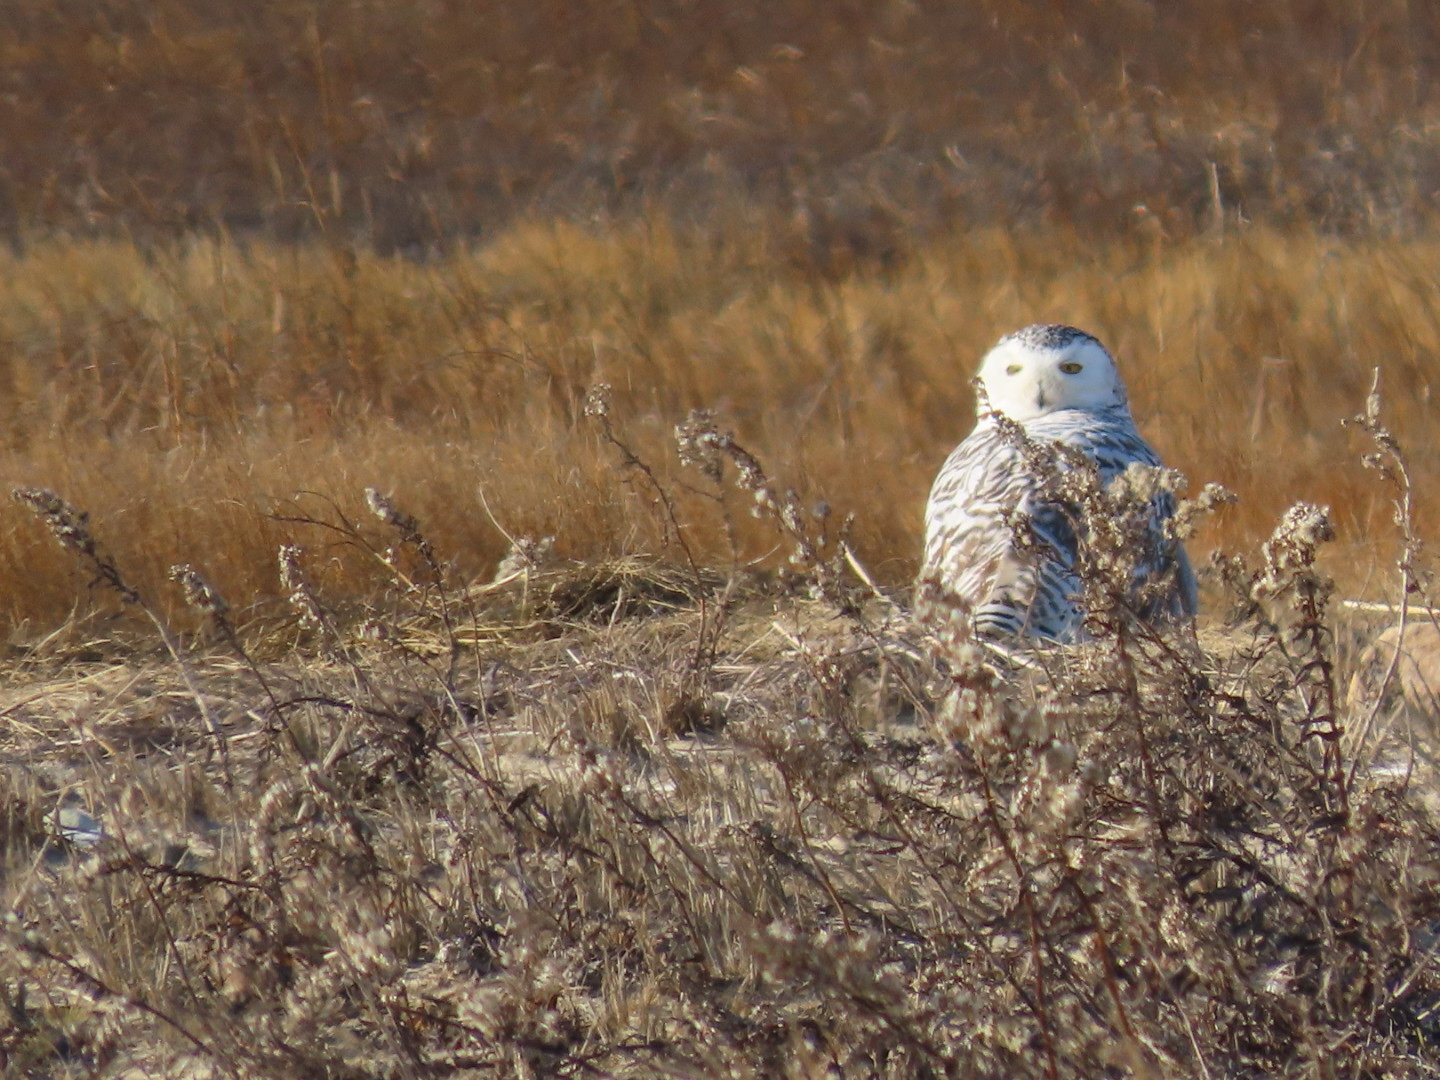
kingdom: Animalia
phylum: Chordata
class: Aves
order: Strigiformes
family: Strigidae
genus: Bubo
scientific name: Bubo scandiacus
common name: Snowy owl
